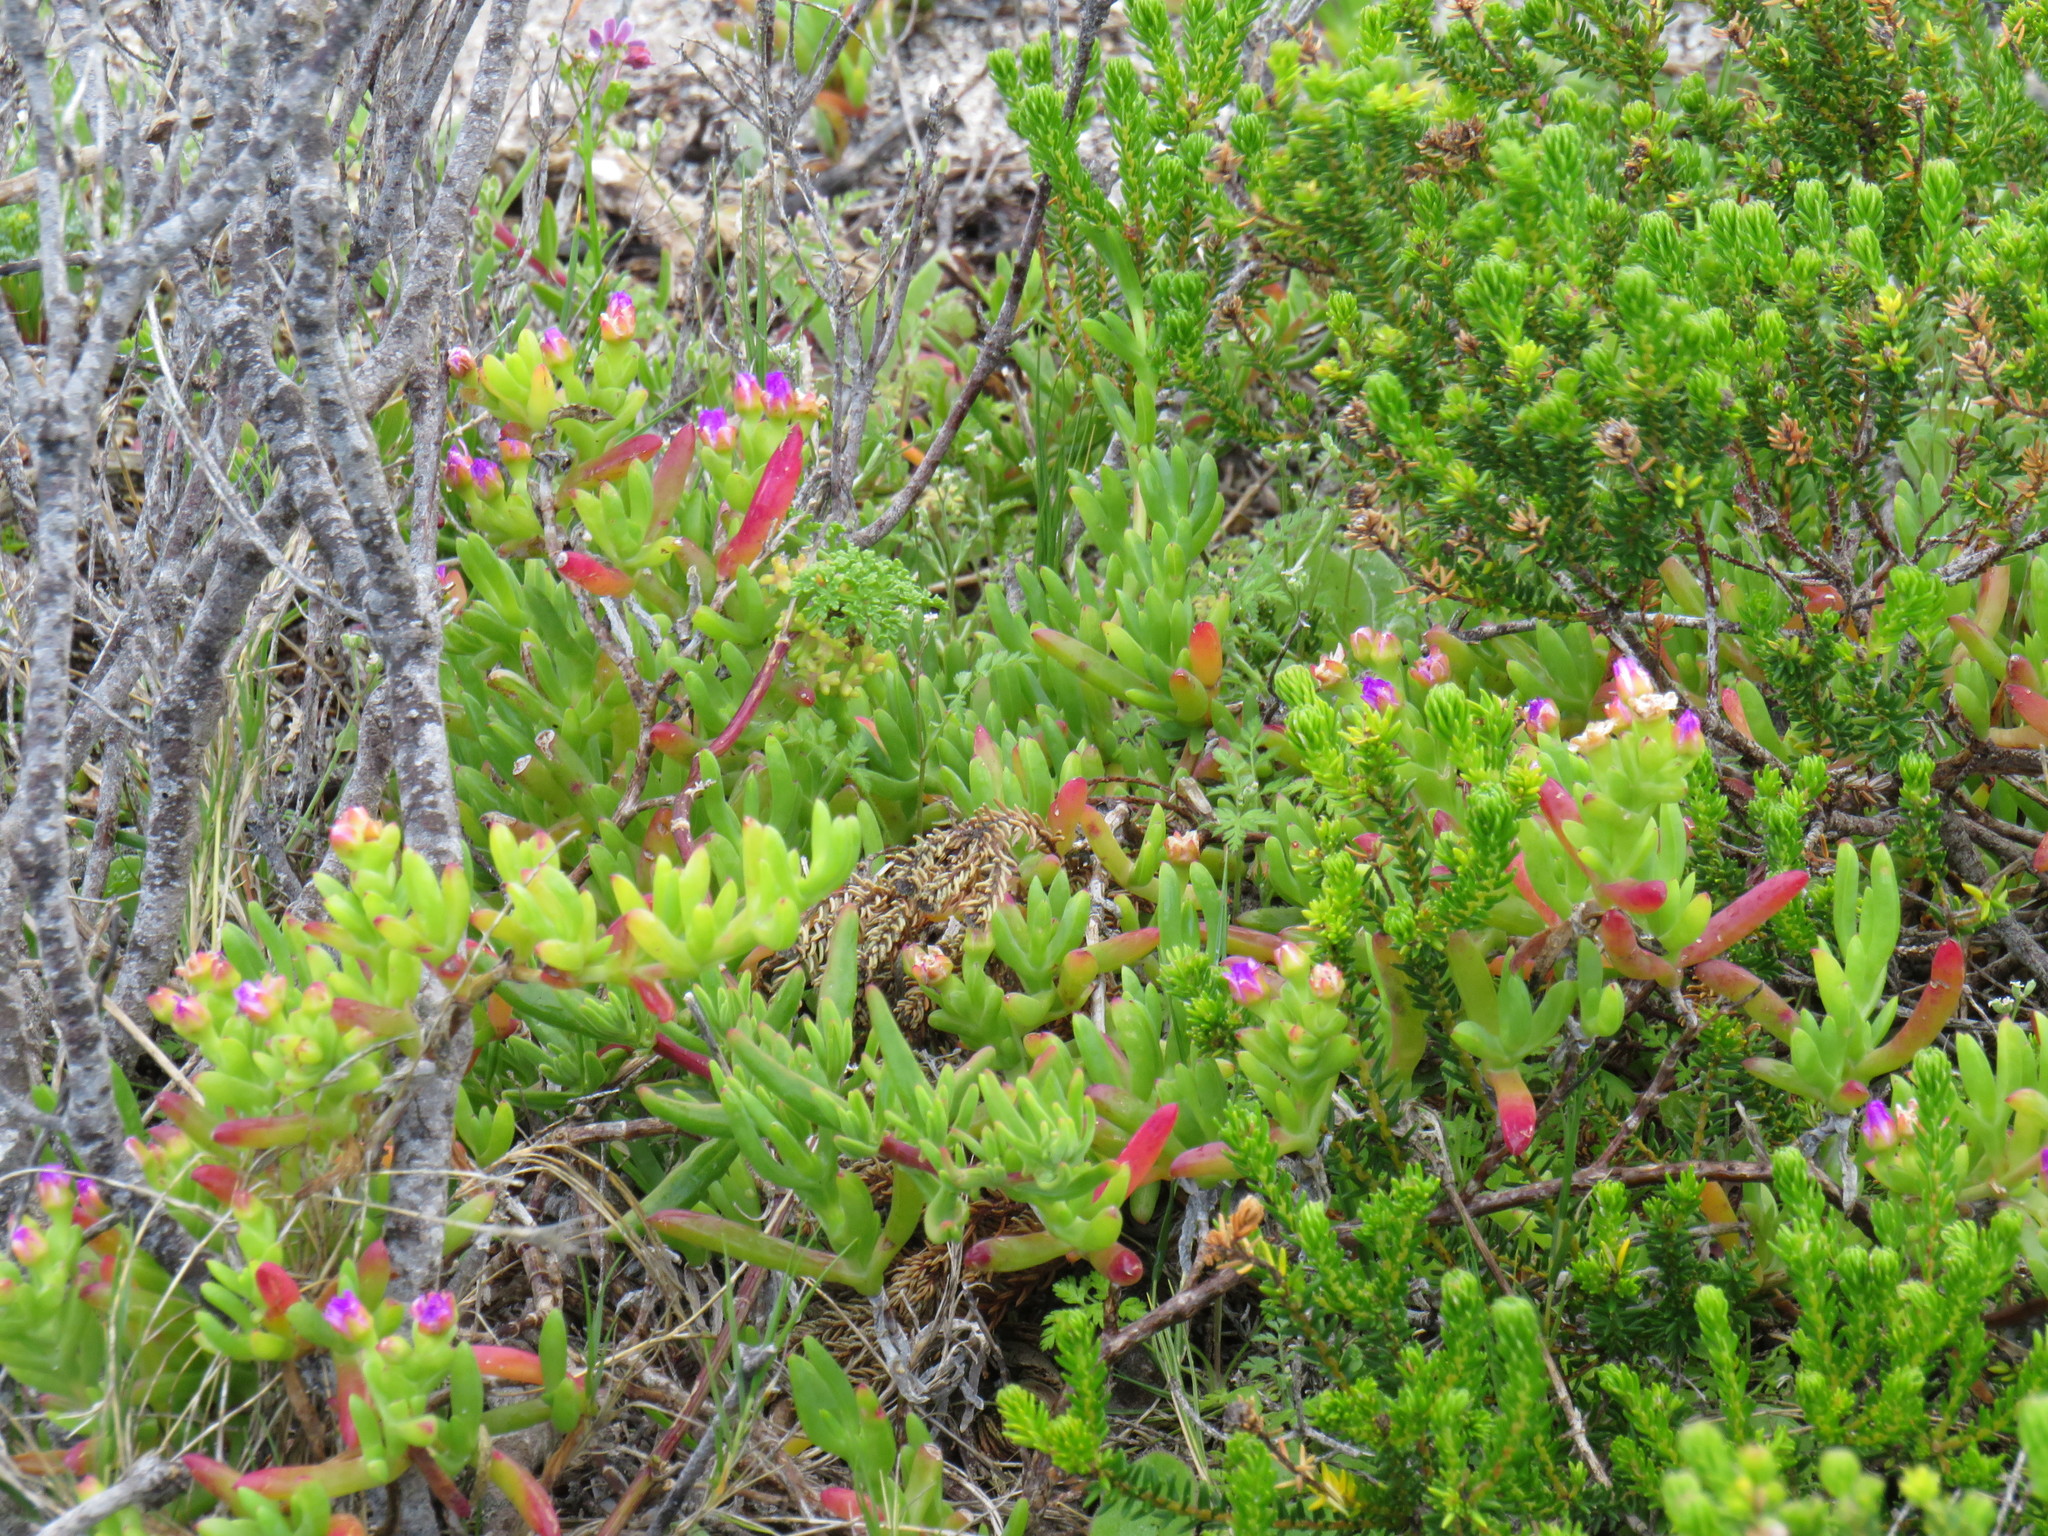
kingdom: Plantae
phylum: Tracheophyta
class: Magnoliopsida
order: Caryophyllales
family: Aizoaceae
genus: Ruschia
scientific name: Ruschia macowanii
